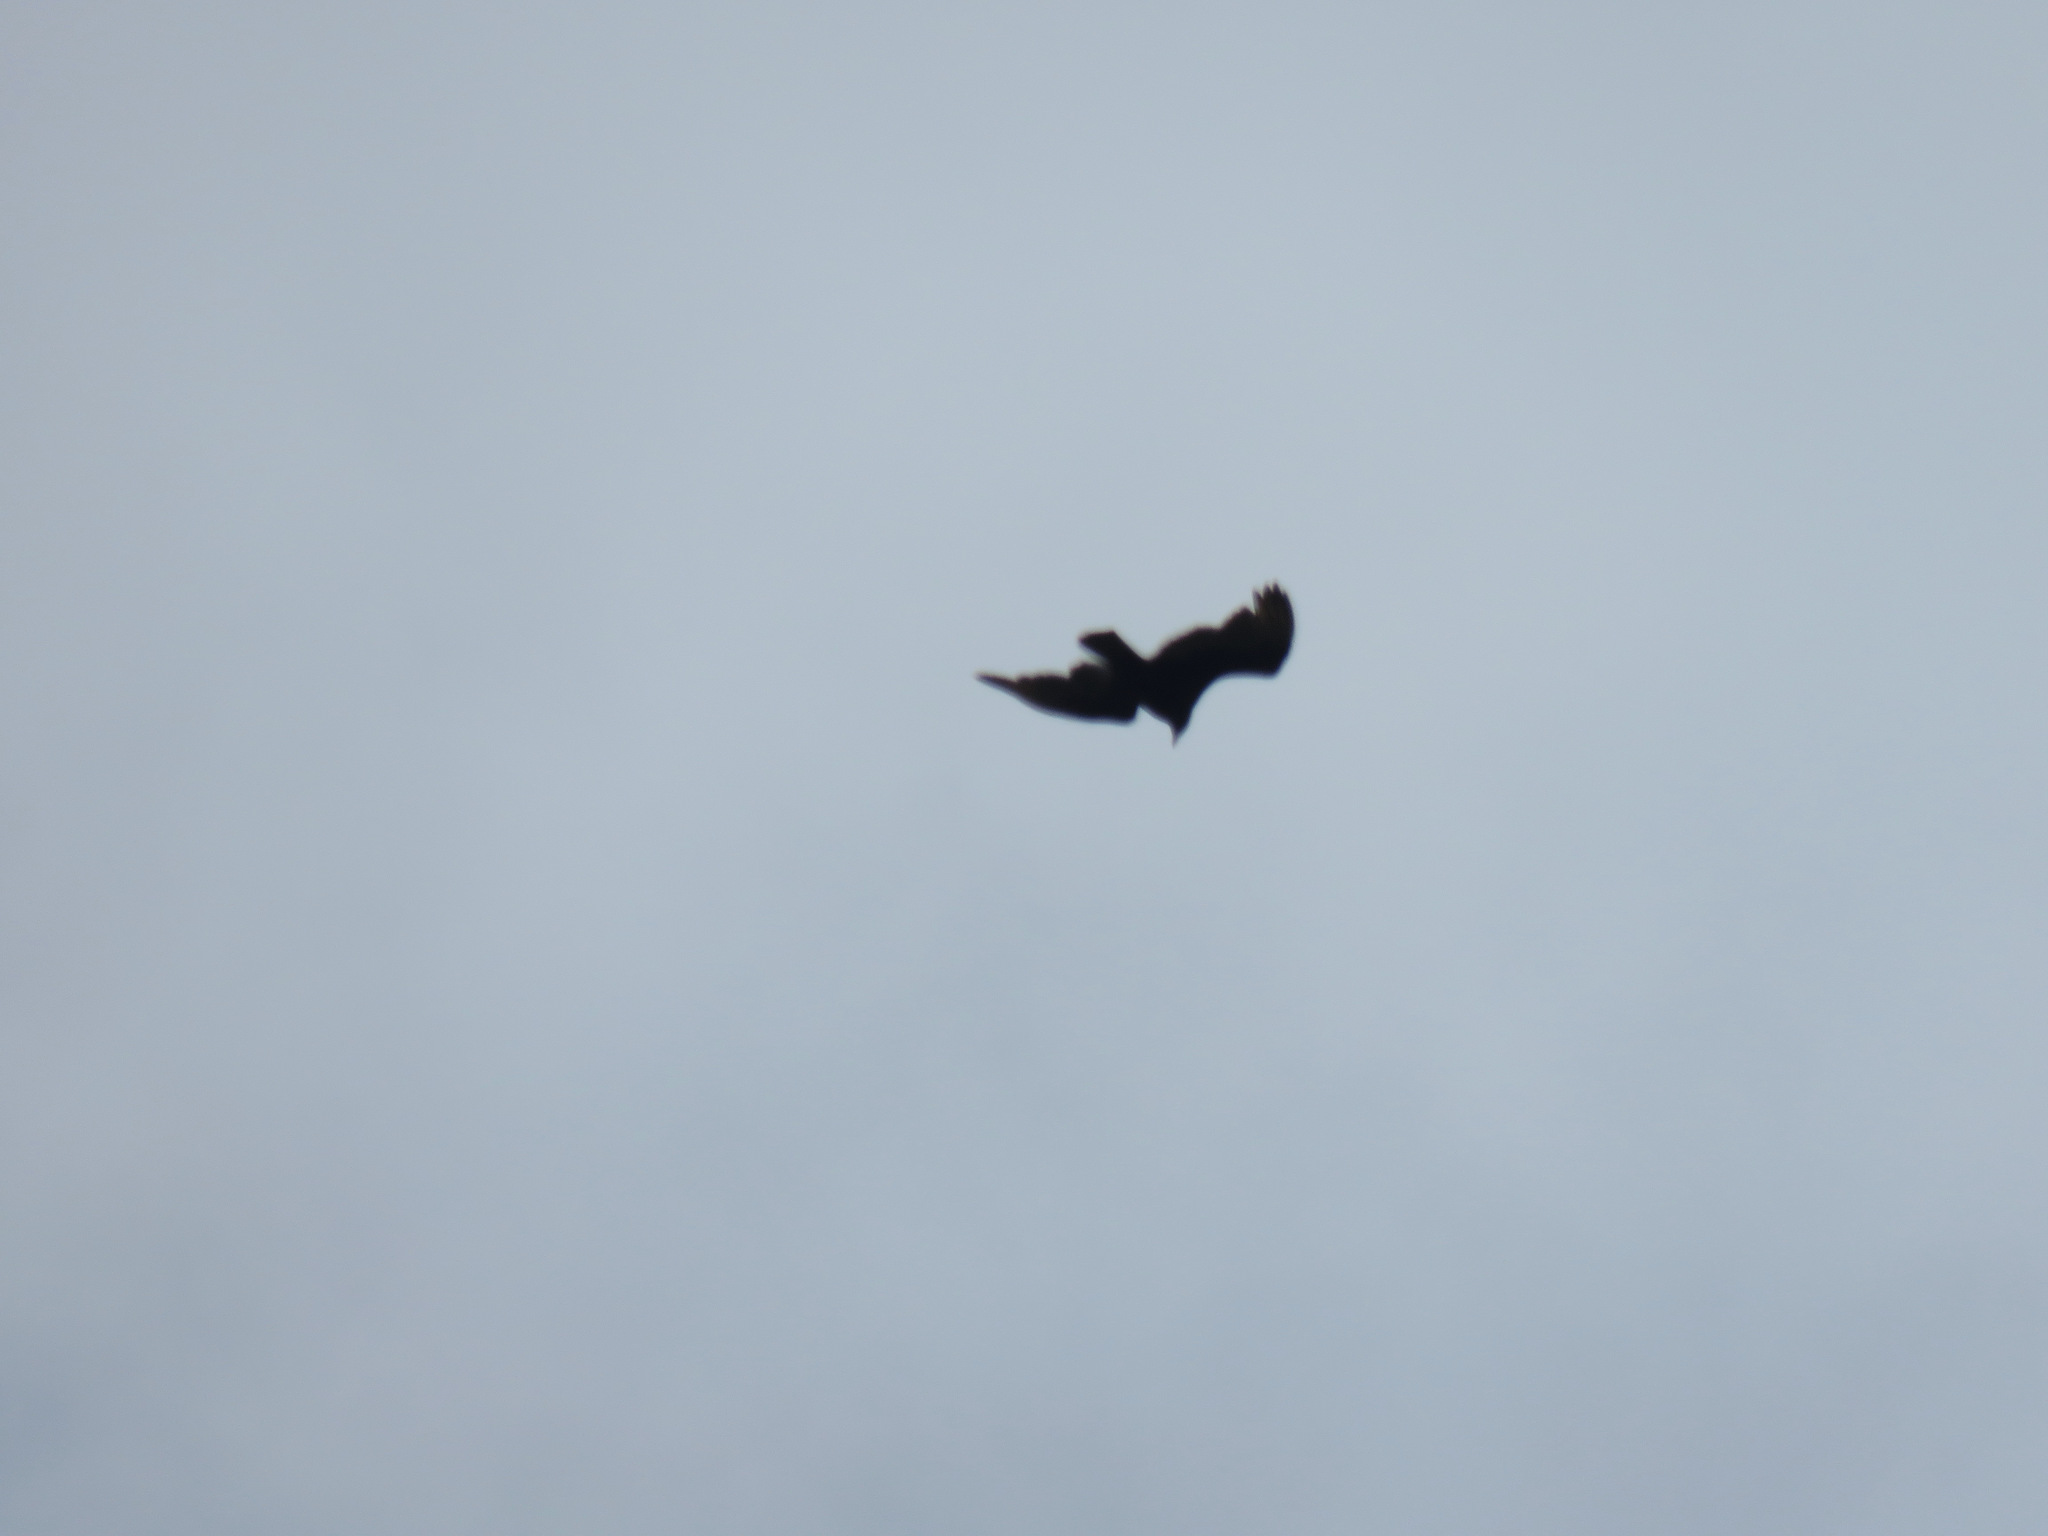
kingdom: Animalia
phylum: Chordata
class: Aves
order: Accipitriformes
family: Cathartidae
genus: Cathartes
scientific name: Cathartes aura
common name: Turkey vulture
